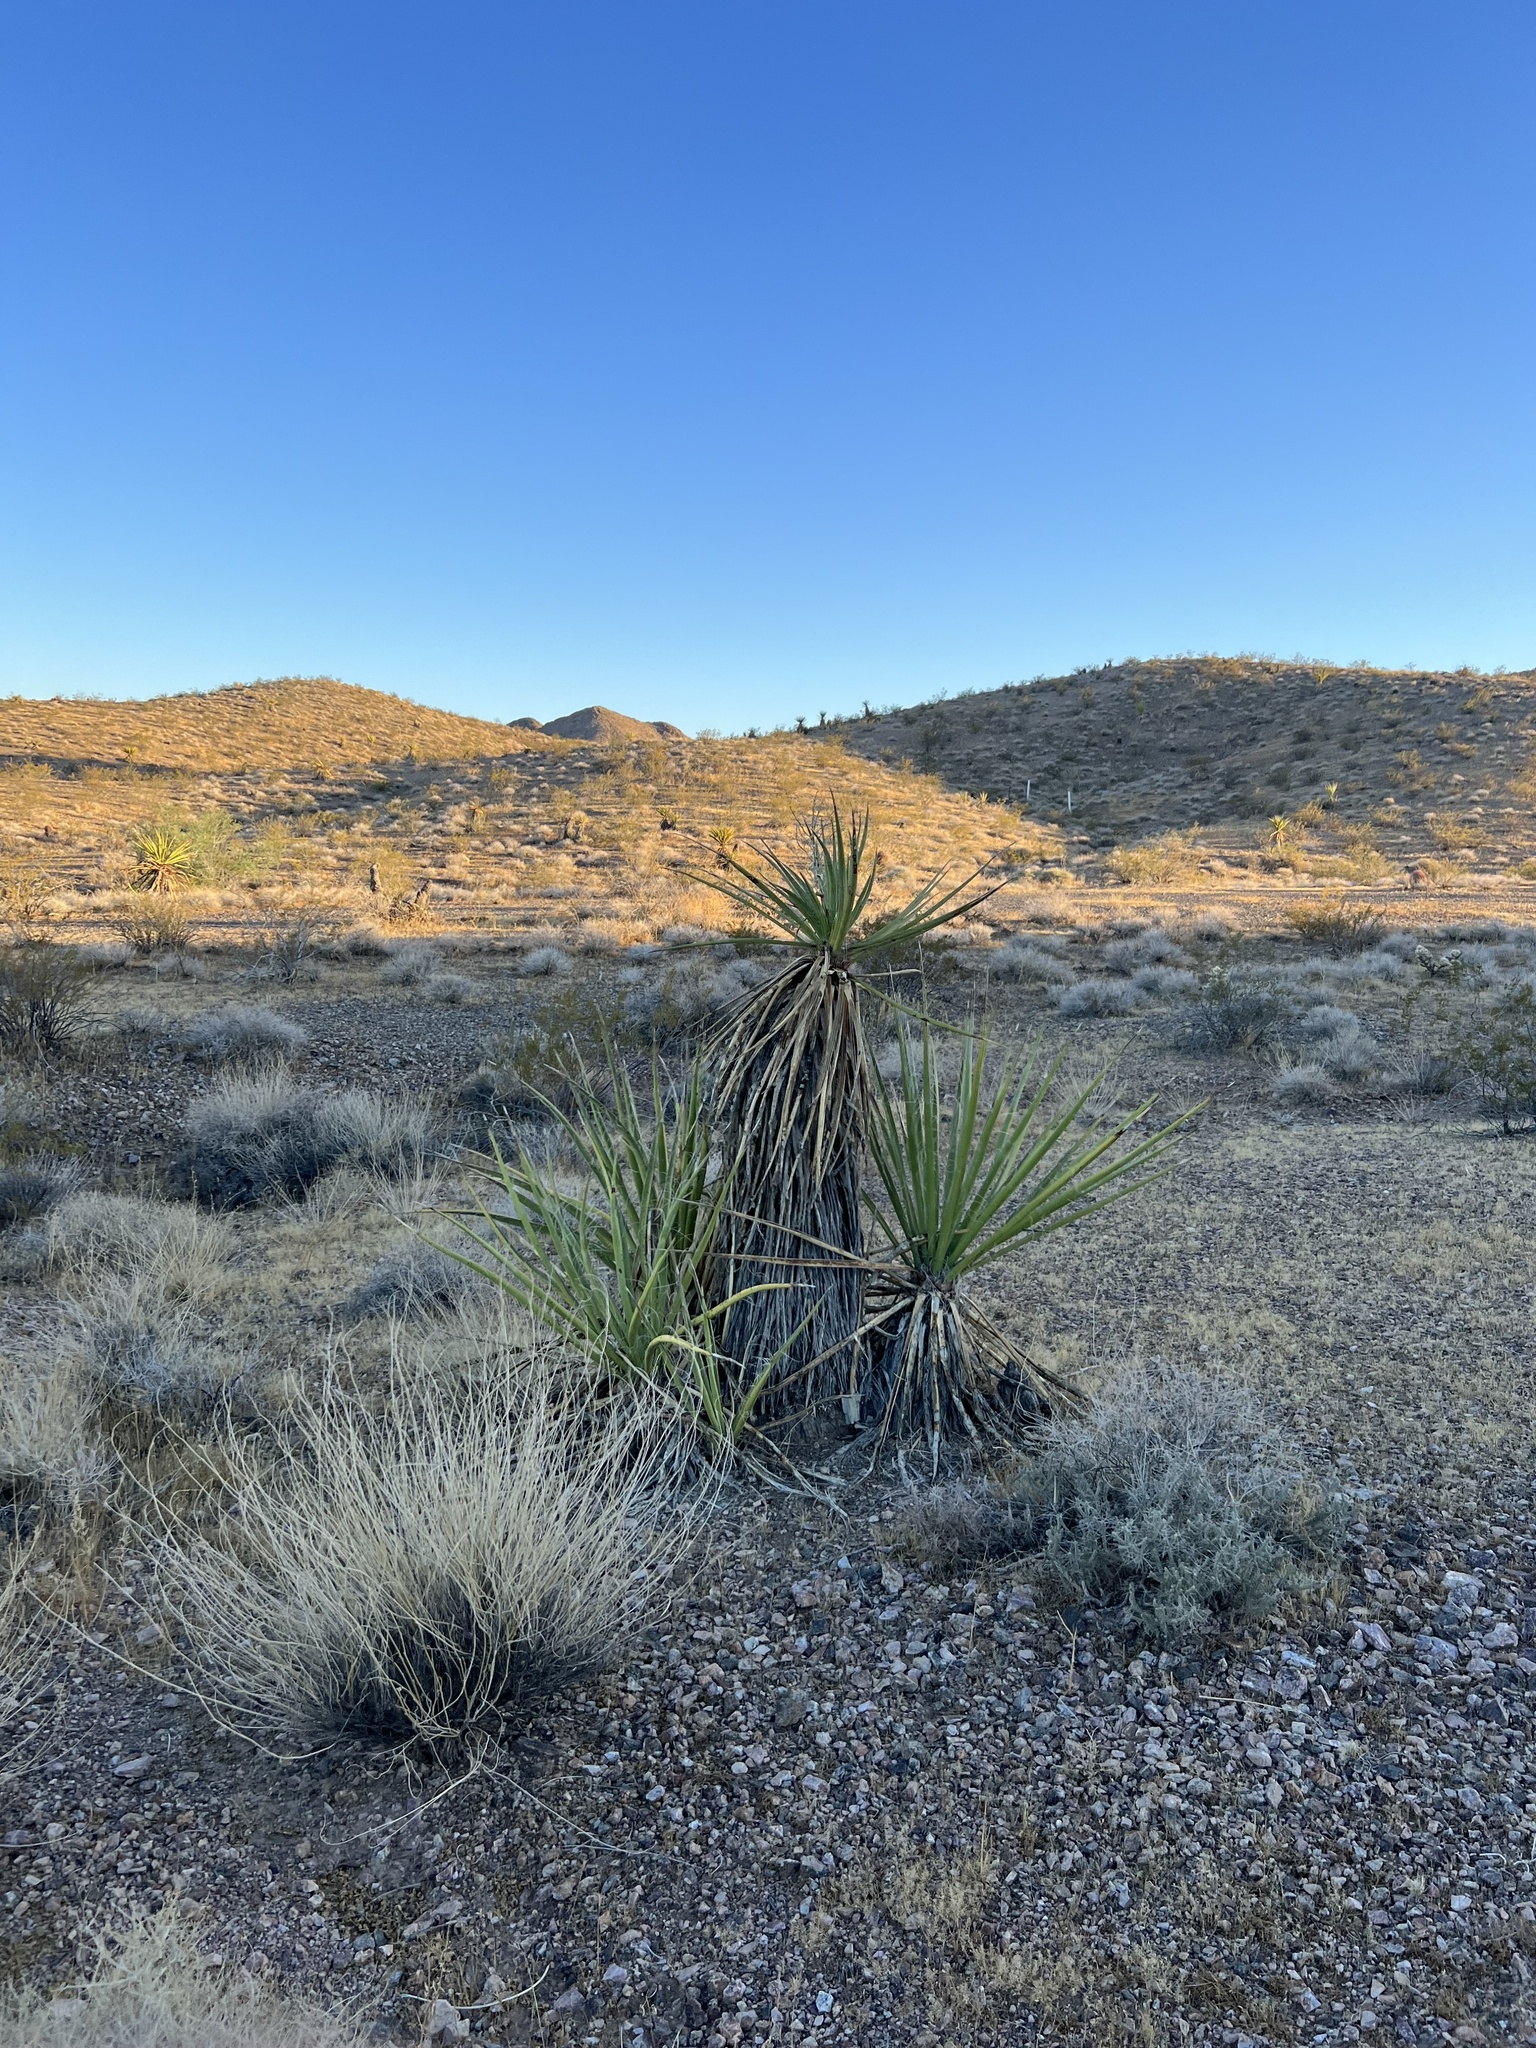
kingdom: Plantae
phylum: Tracheophyta
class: Liliopsida
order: Asparagales
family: Asparagaceae
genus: Yucca
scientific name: Yucca schidigera
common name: Mojave yucca
